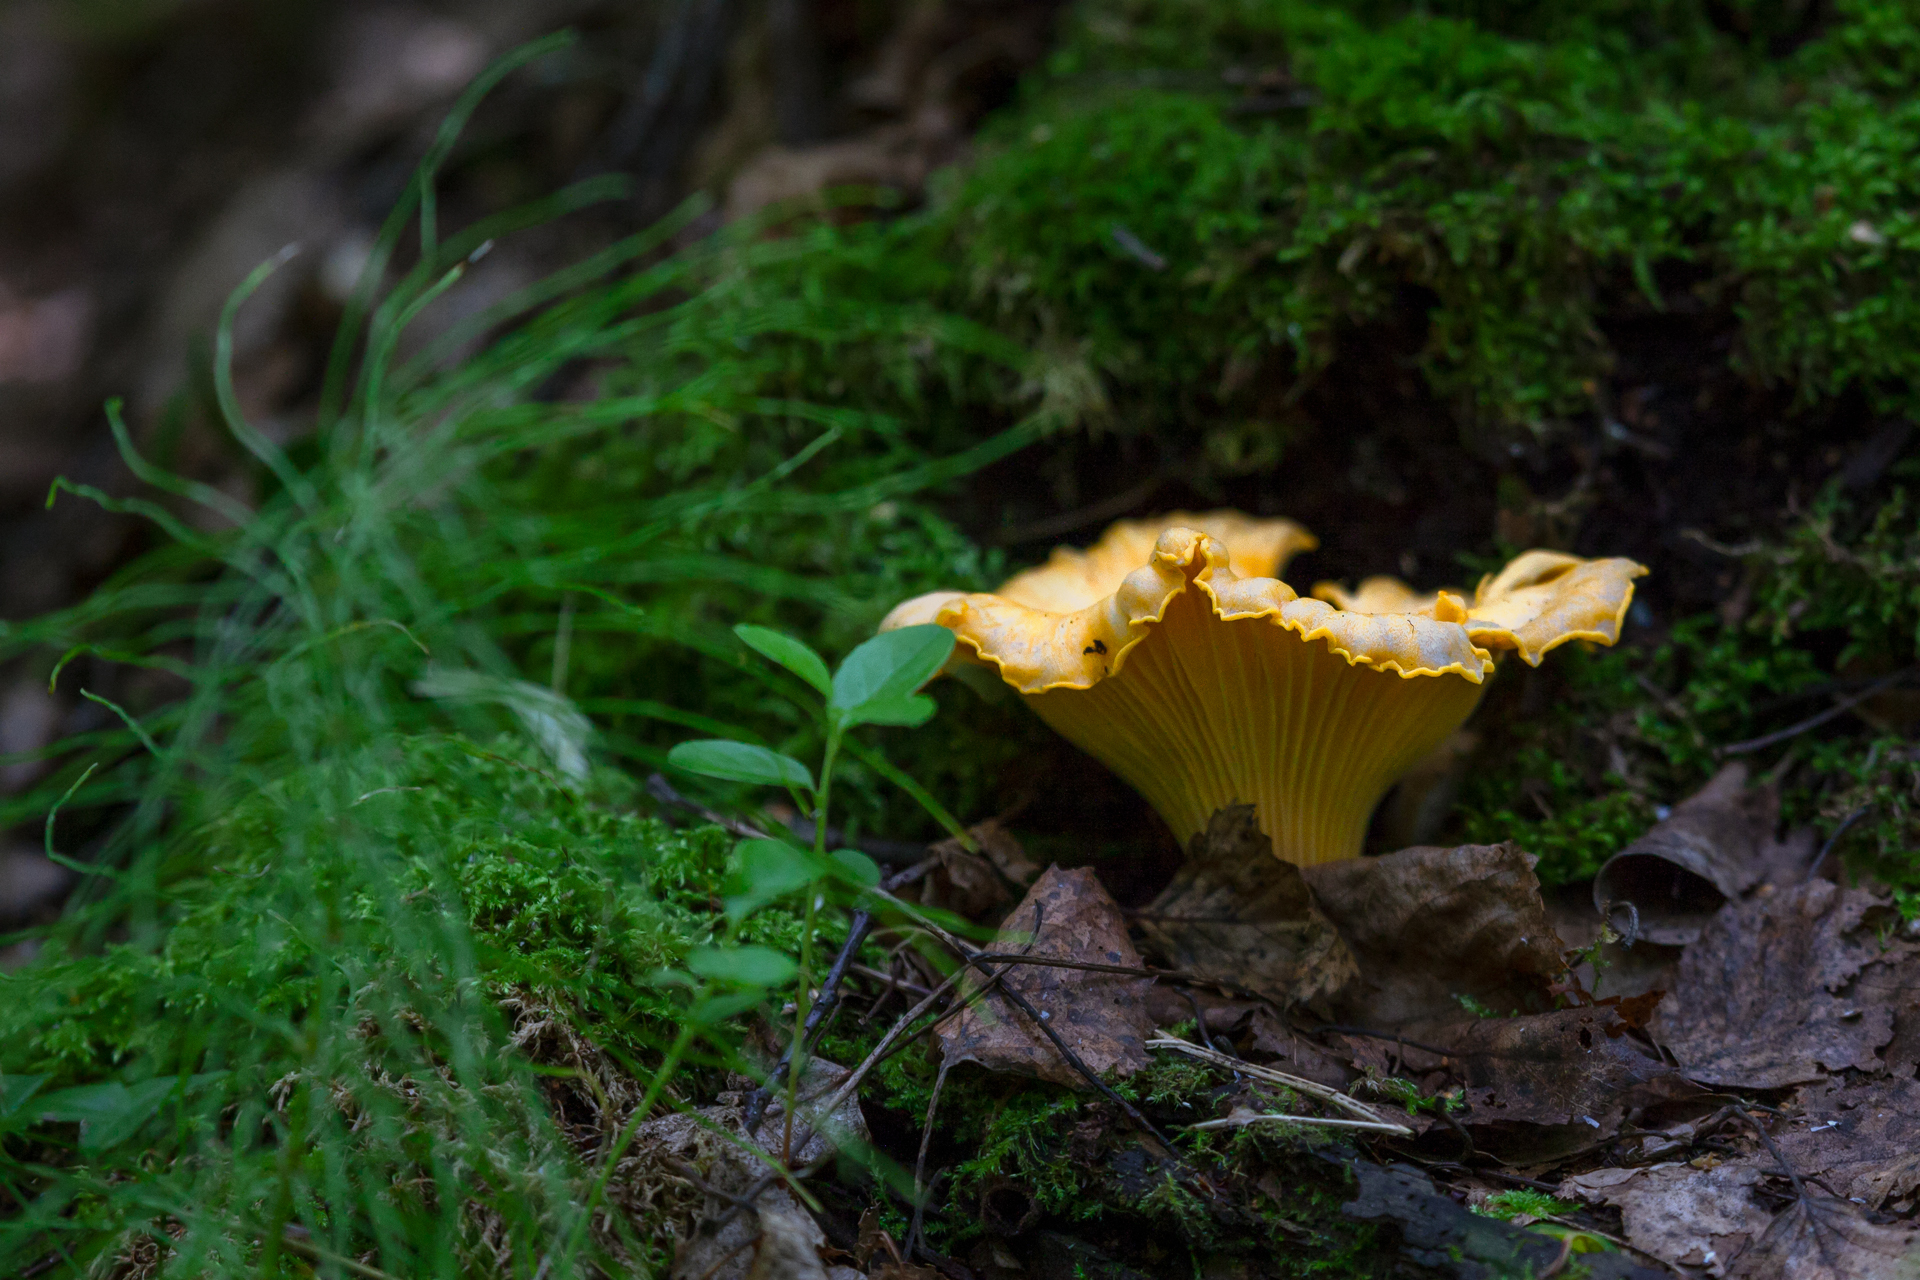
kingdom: Fungi
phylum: Basidiomycota
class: Agaricomycetes
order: Cantharellales
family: Hydnaceae
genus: Cantharellus
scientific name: Cantharellus cibarius
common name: Chanterelle
